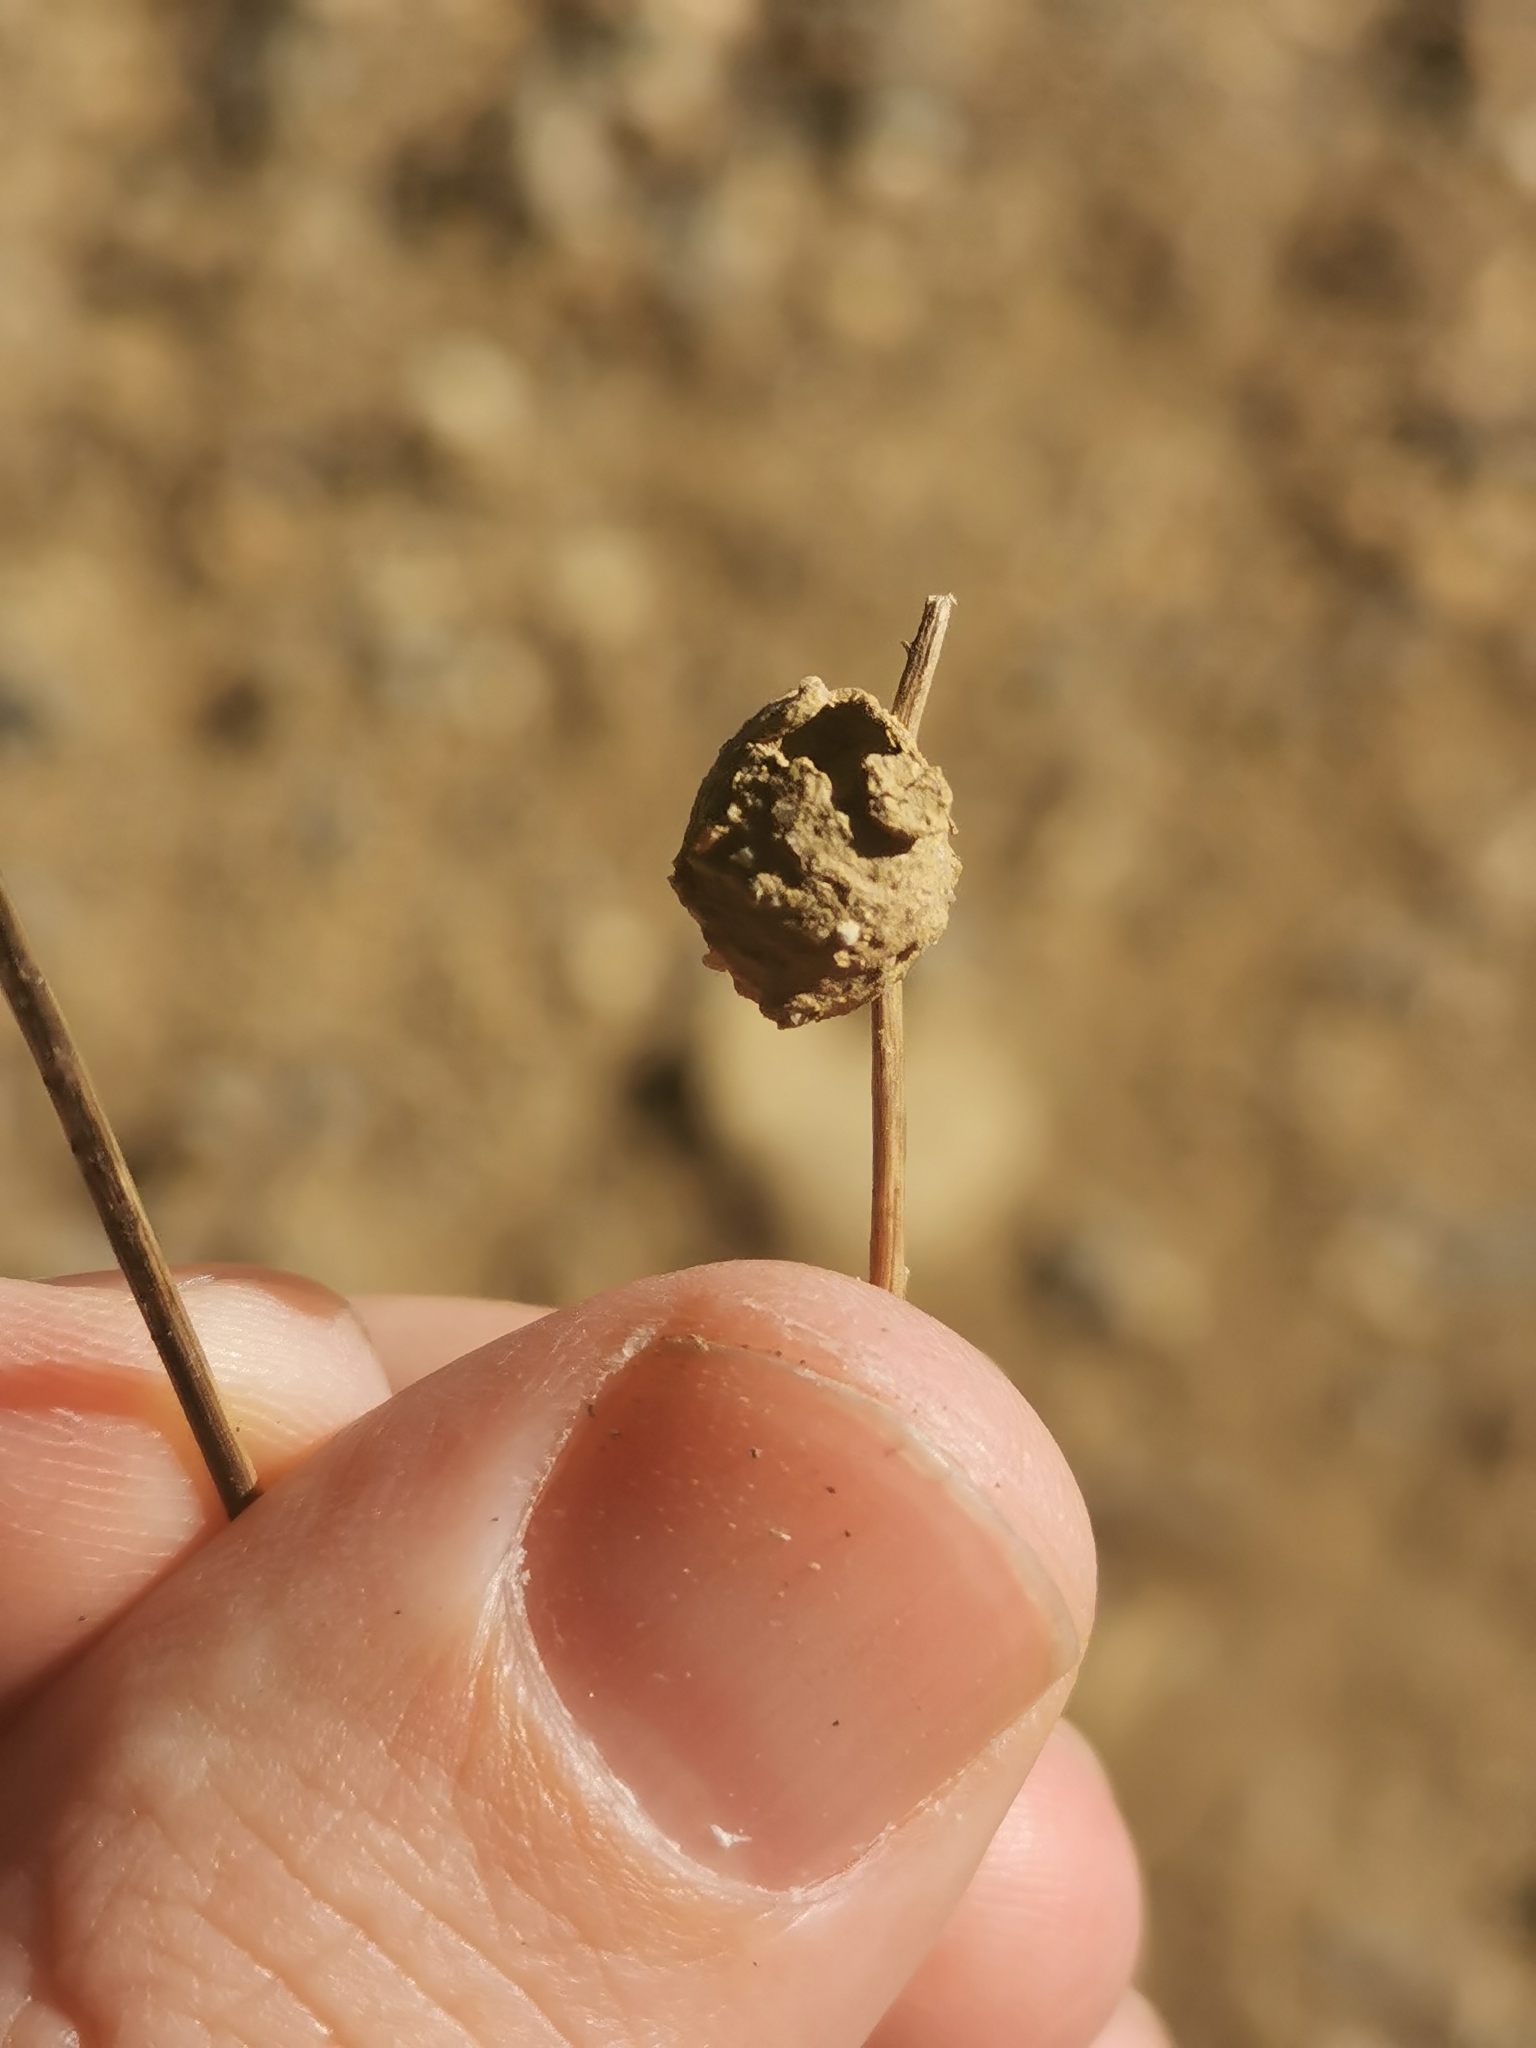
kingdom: Animalia
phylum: Arthropoda
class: Insecta
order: Hymenoptera
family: Eumenidae
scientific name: Eumenidae
